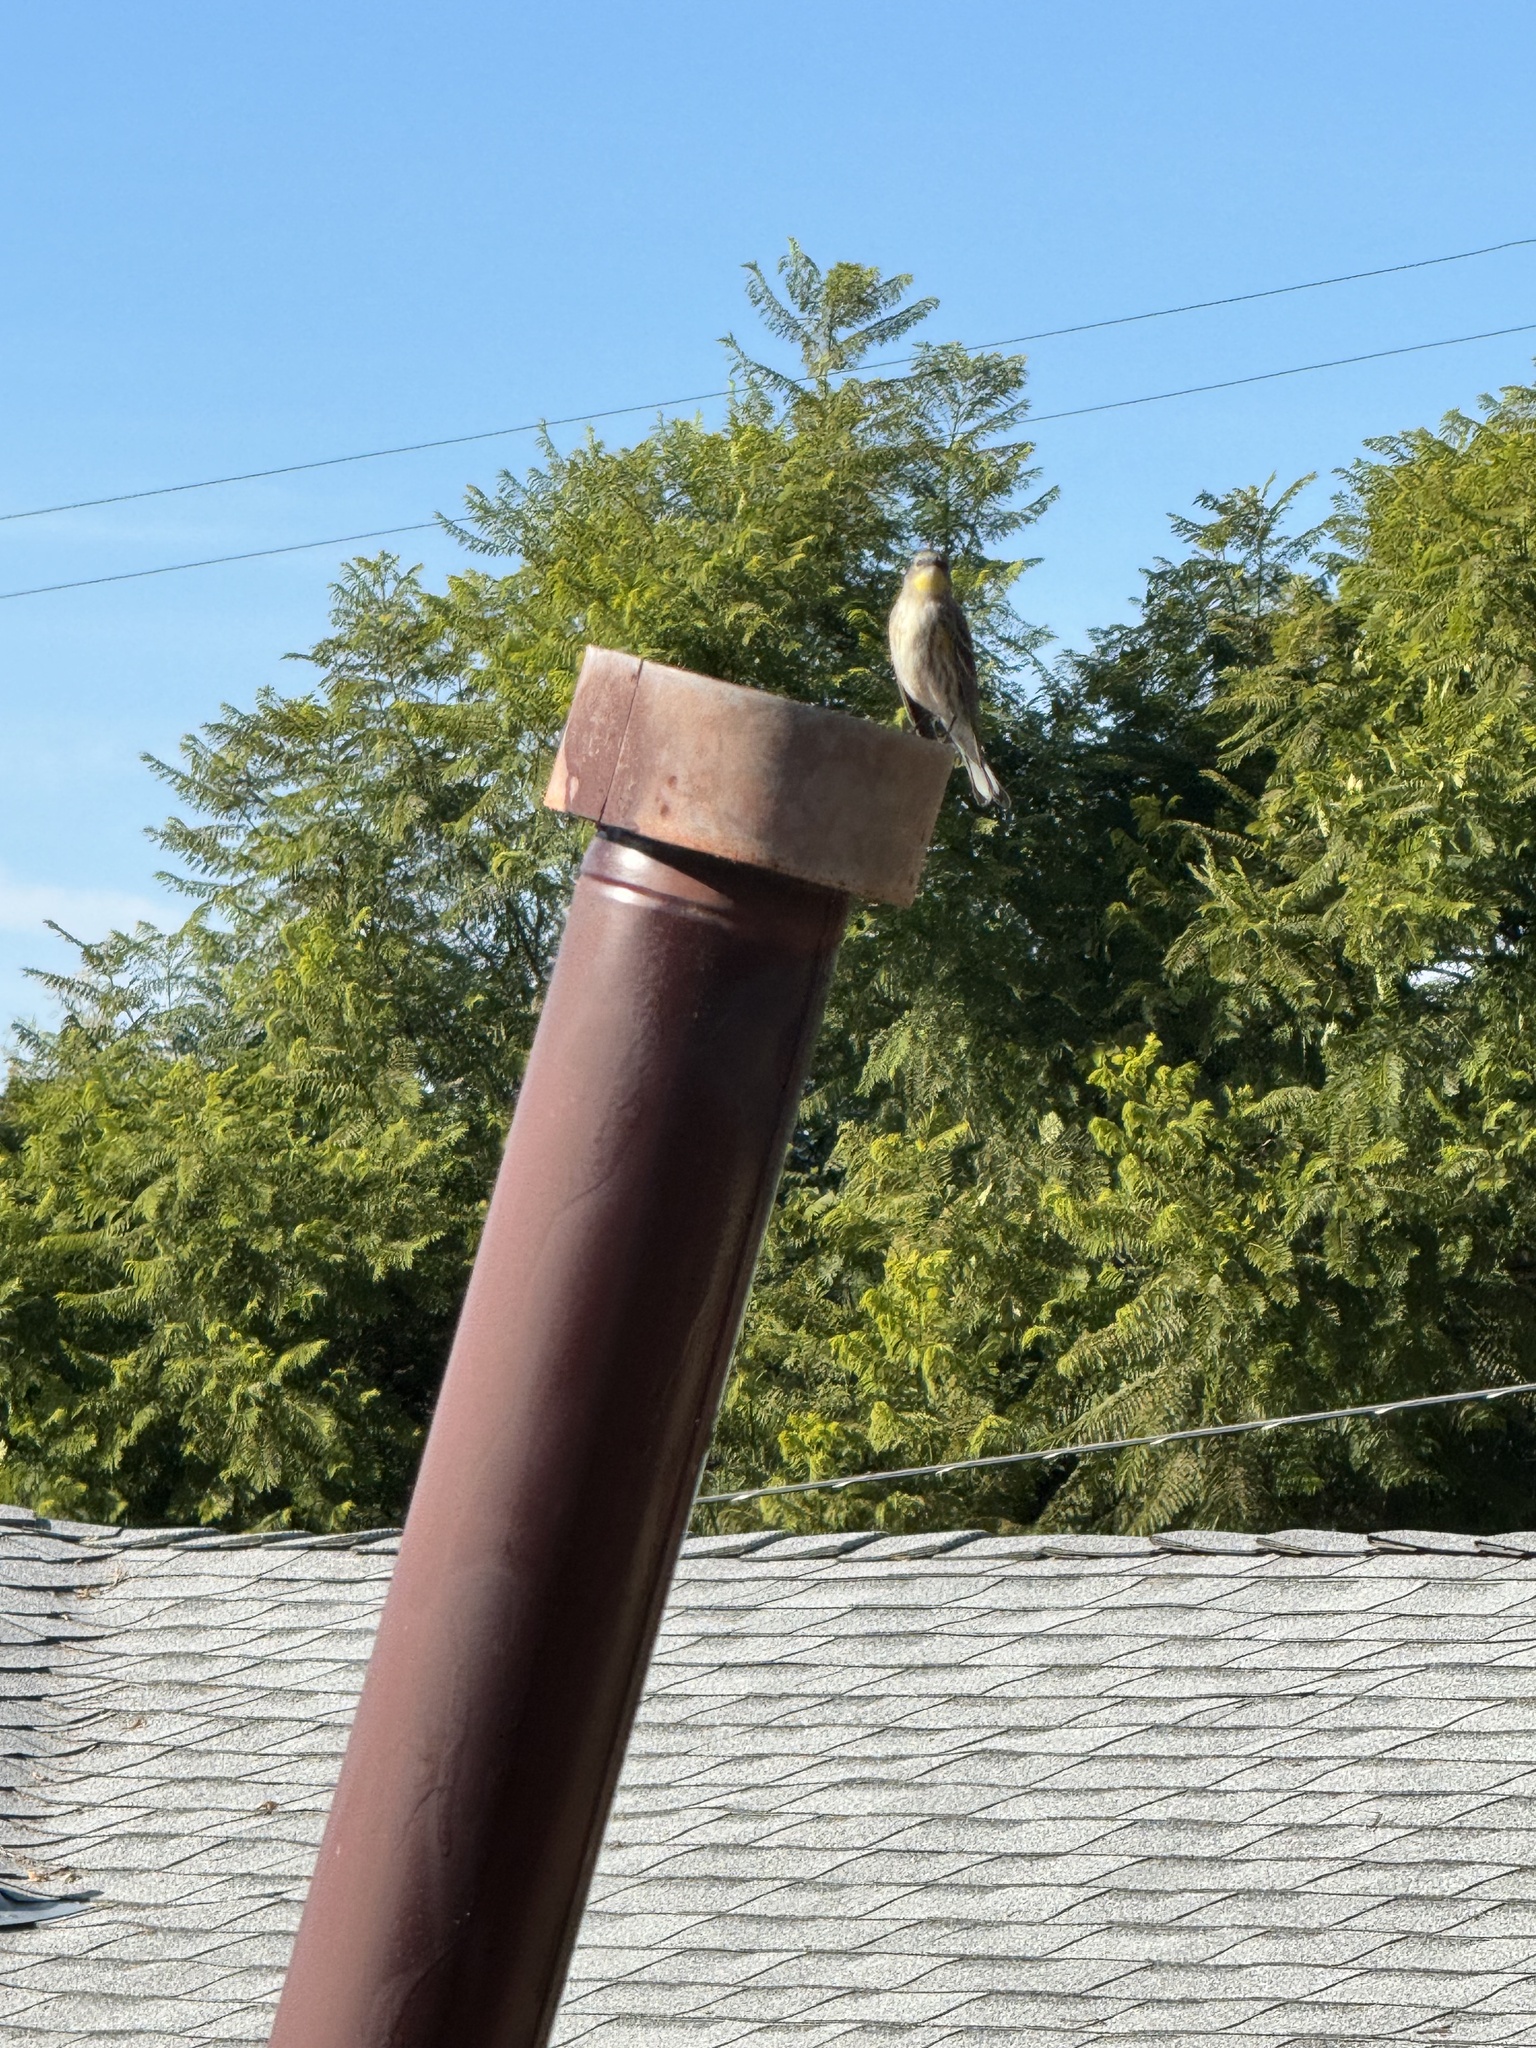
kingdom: Animalia
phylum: Chordata
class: Aves
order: Passeriformes
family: Parulidae
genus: Setophaga
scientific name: Setophaga coronata
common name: Myrtle warbler
